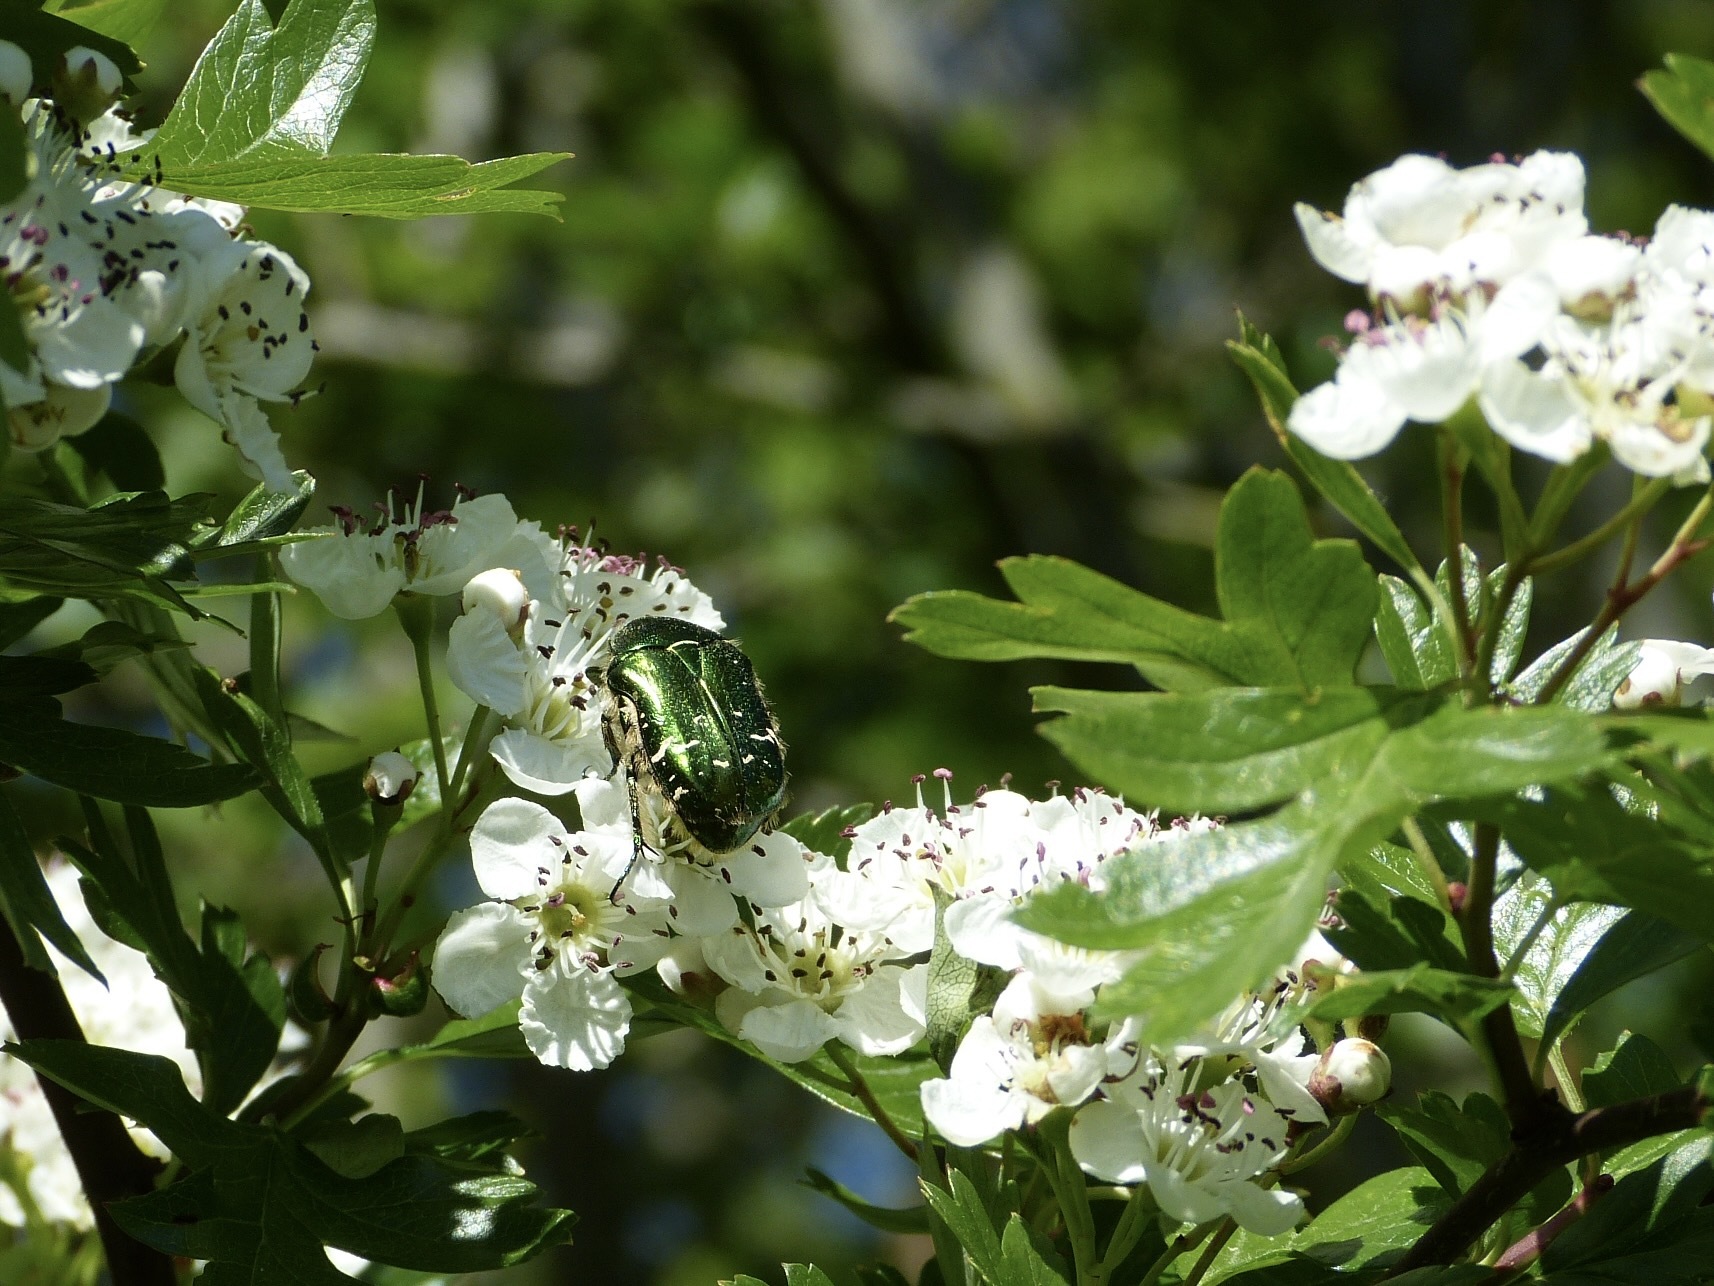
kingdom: Animalia
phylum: Arthropoda
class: Insecta
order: Coleoptera
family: Scarabaeidae
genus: Cetonia
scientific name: Cetonia aurata
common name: Rose chafer
